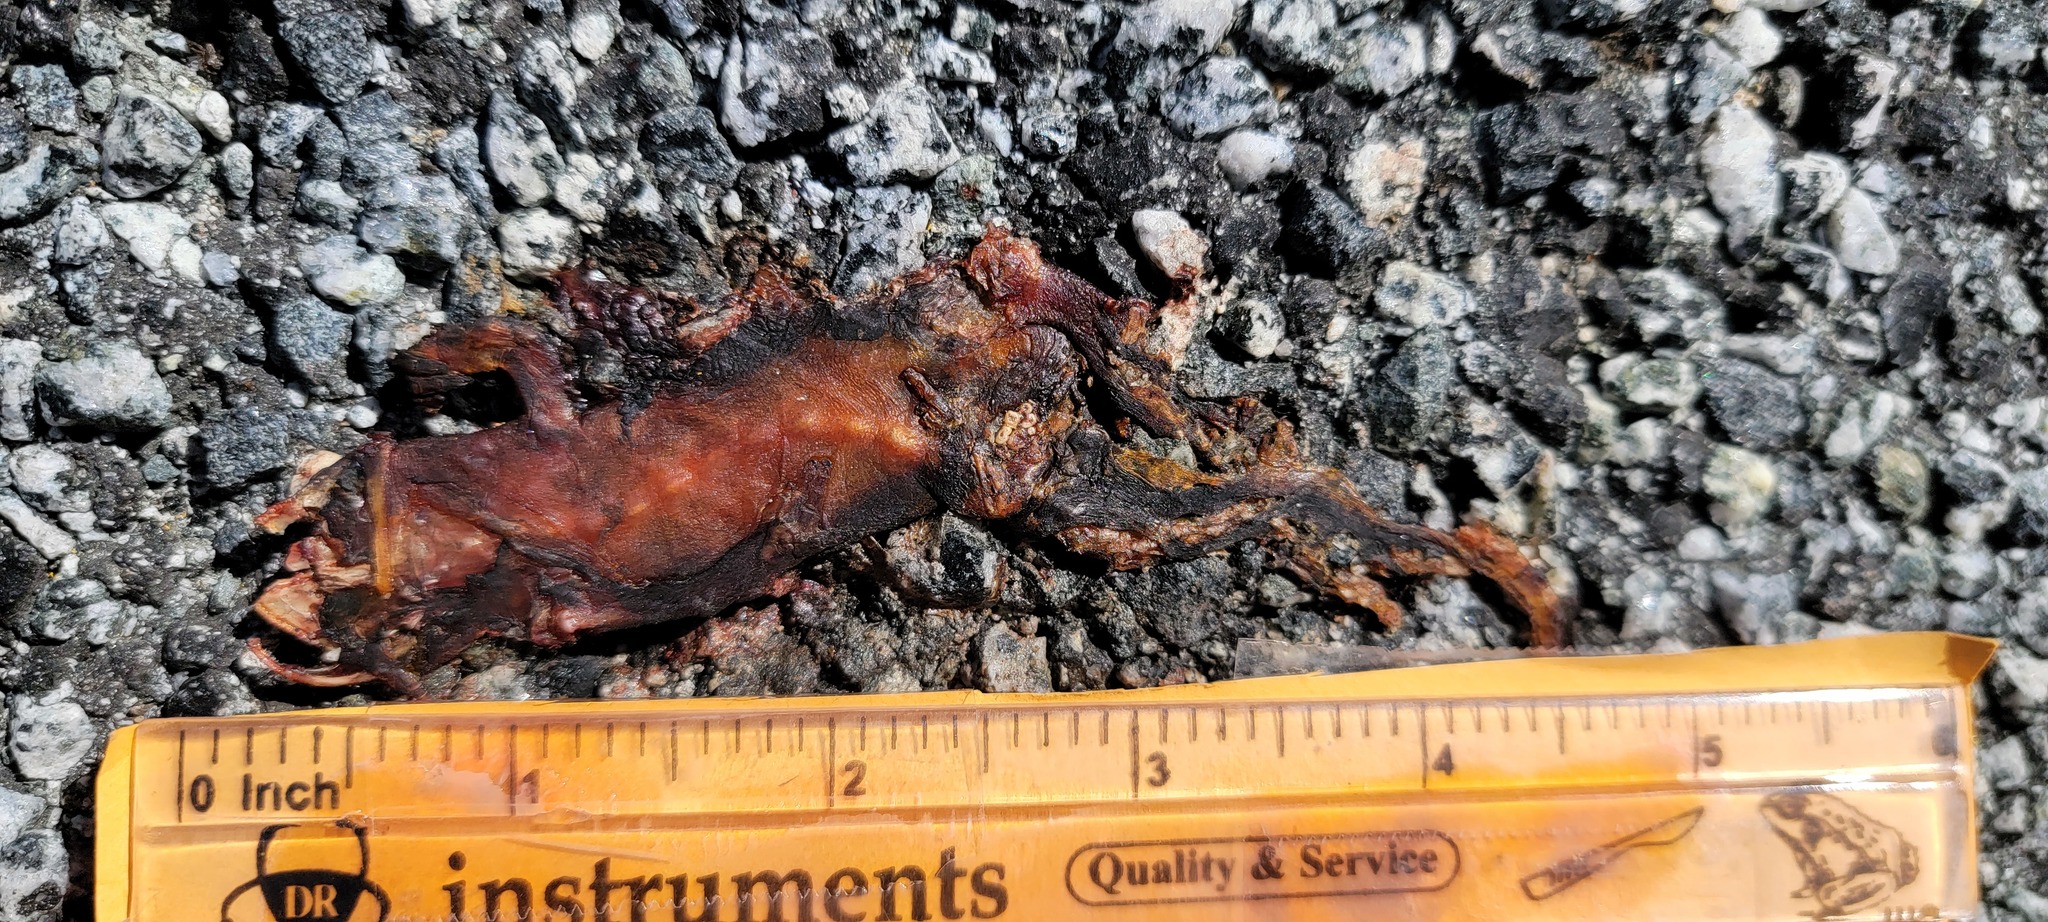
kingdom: Animalia
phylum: Chordata
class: Amphibia
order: Caudata
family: Salamandridae
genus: Taricha
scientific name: Taricha
